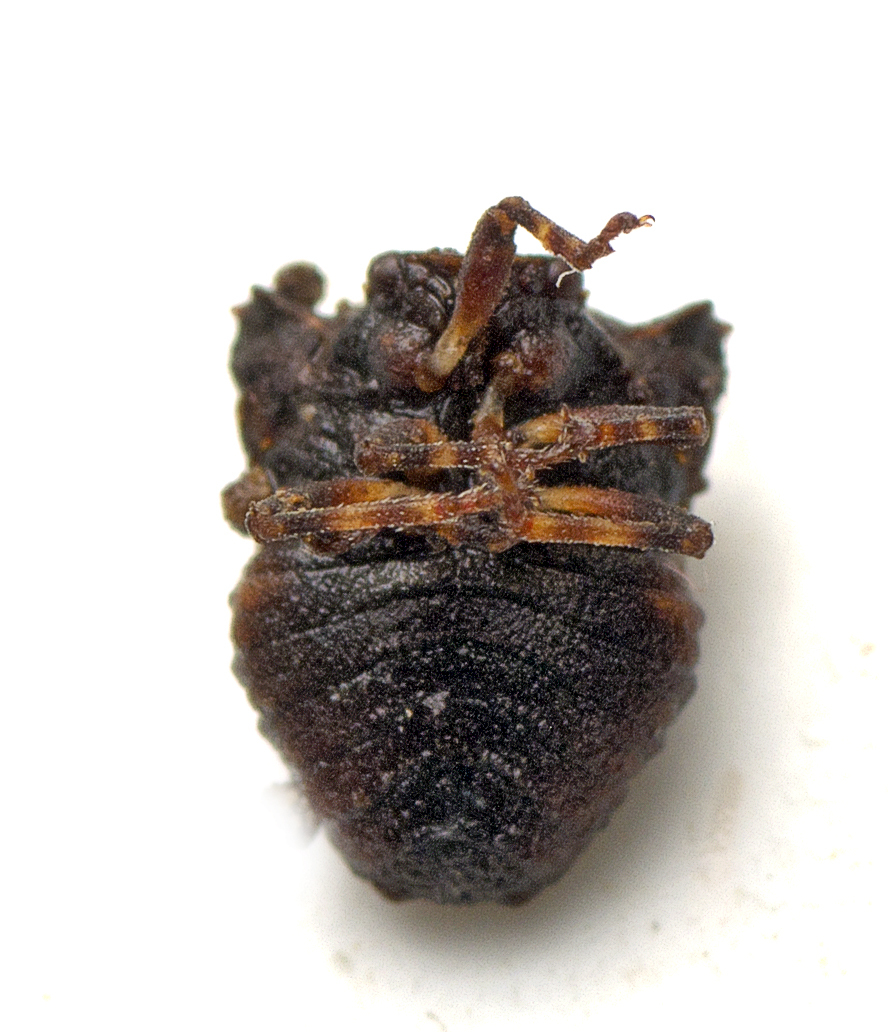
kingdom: Animalia
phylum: Arthropoda
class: Insecta
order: Hemiptera
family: Pentatomidae
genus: Eufroggattia
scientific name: Eufroggattia
